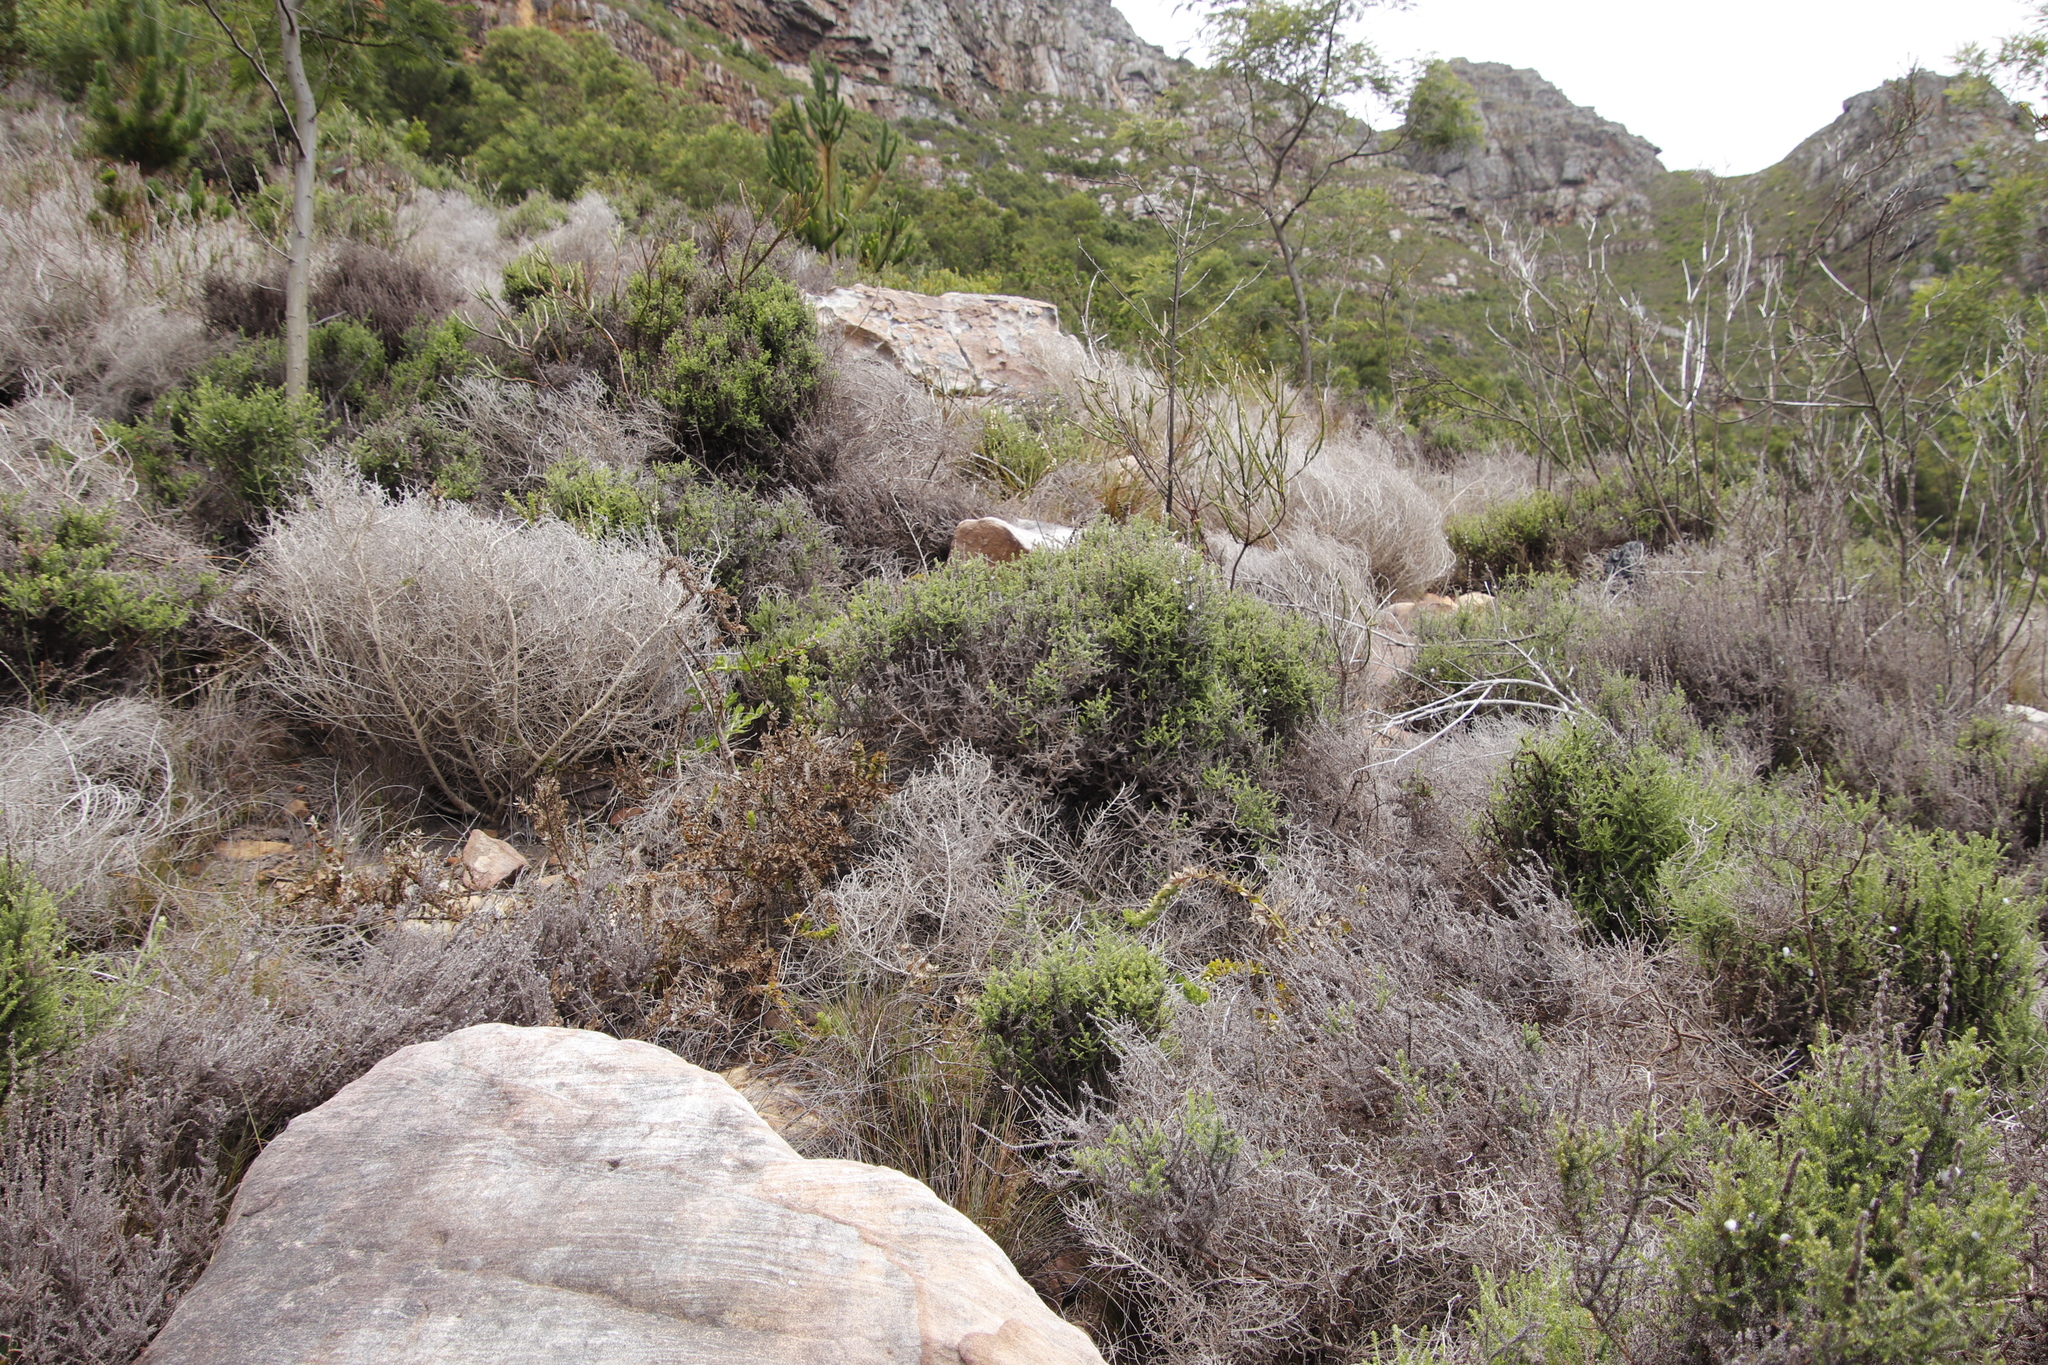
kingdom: Plantae
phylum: Tracheophyta
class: Magnoliopsida
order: Asterales
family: Asteraceae
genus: Seriphium
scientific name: Seriphium cinereum
